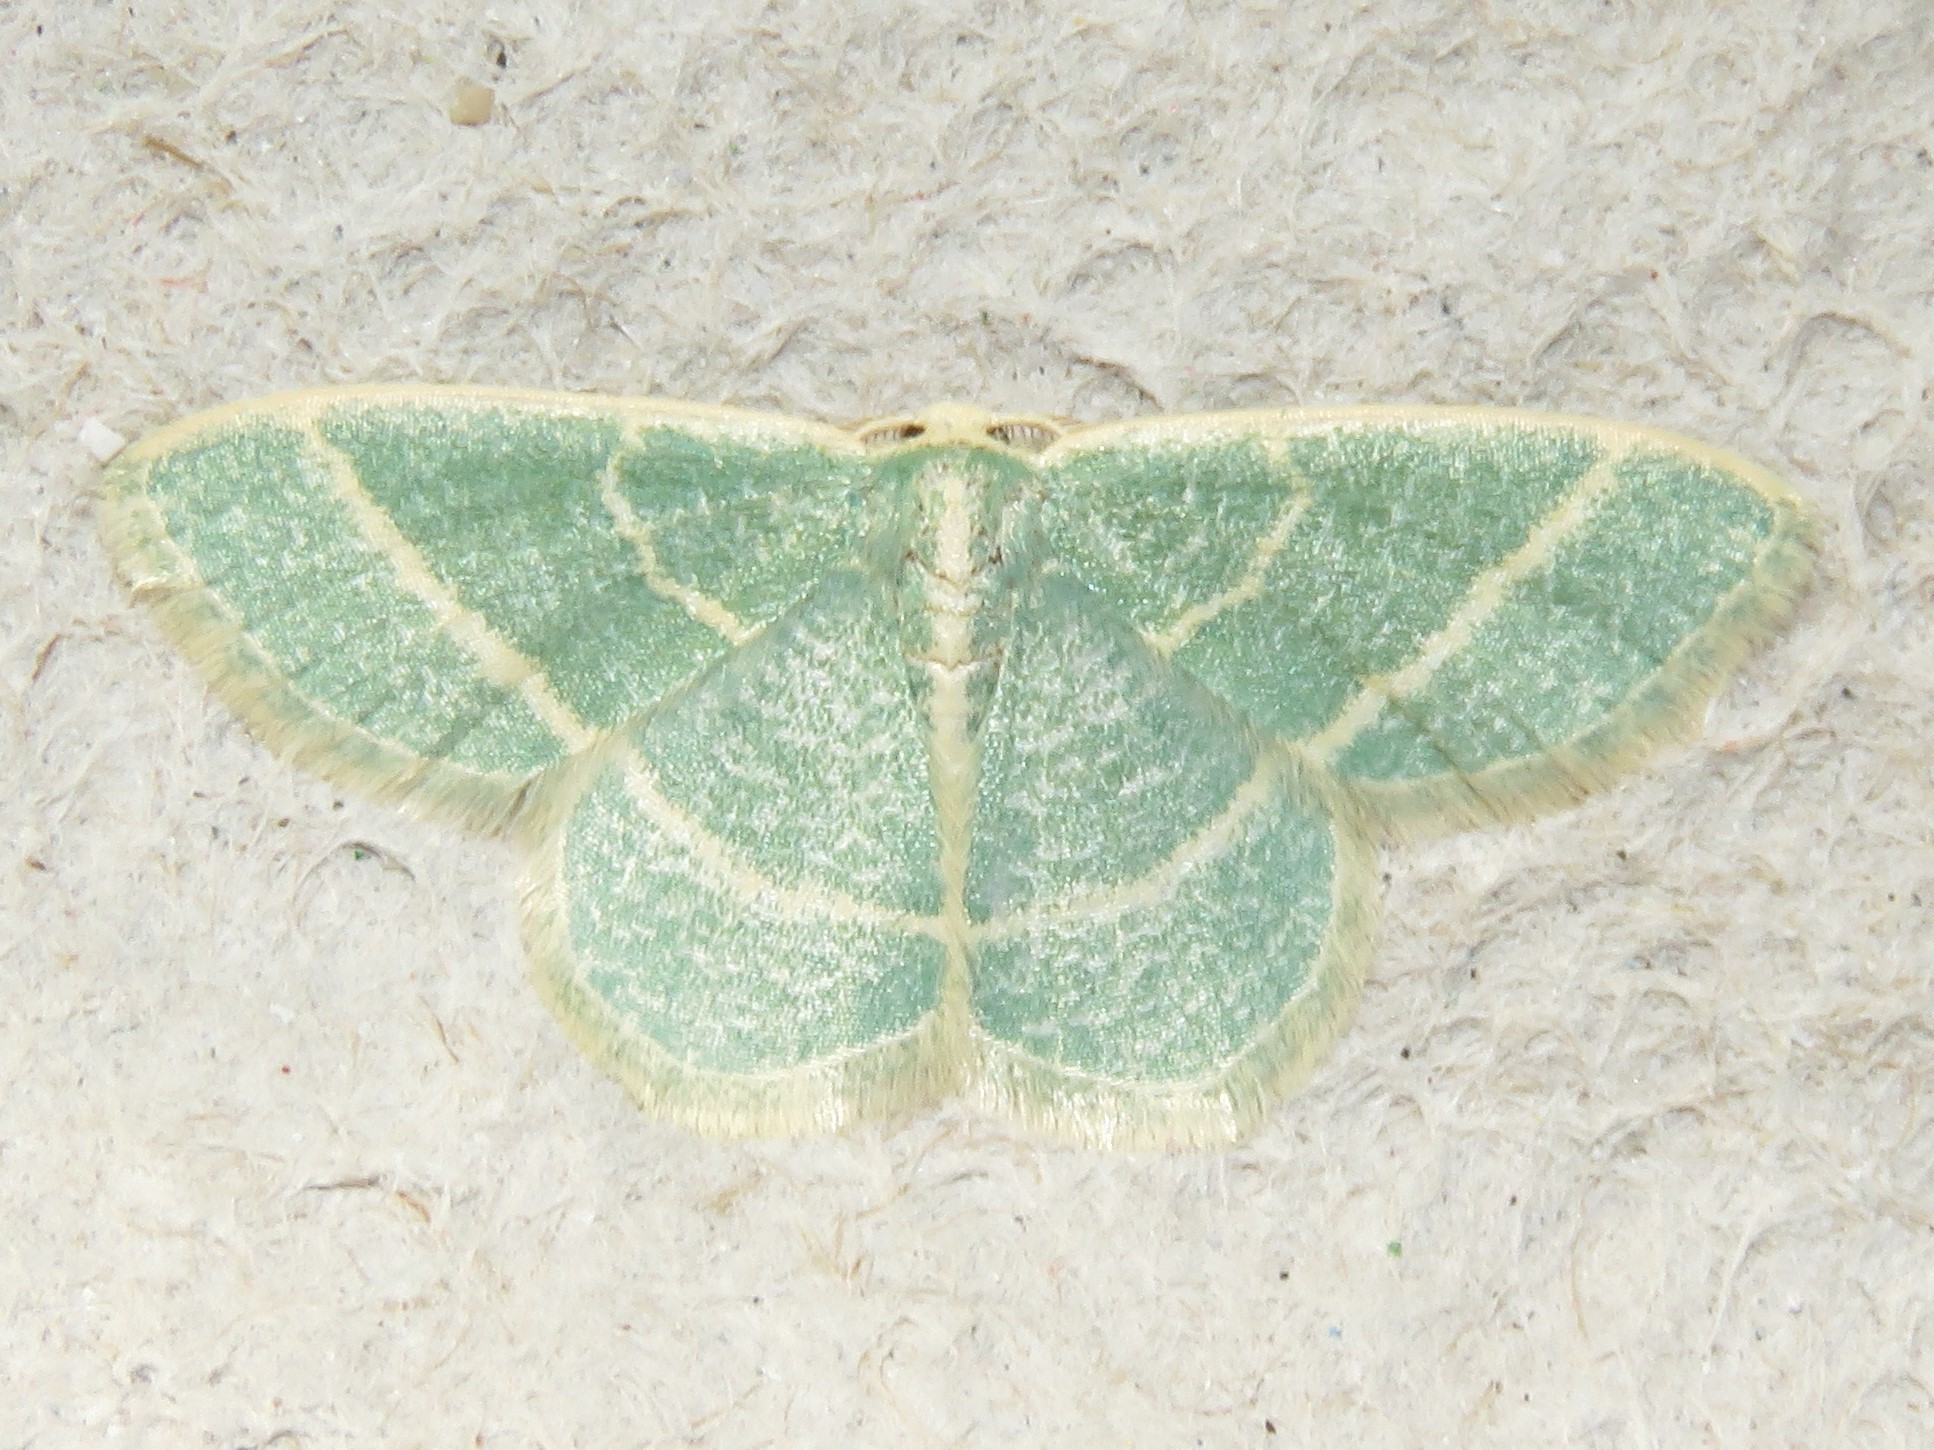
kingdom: Animalia
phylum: Arthropoda
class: Insecta
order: Lepidoptera
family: Geometridae
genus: Chlorochlamys
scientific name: Chlorochlamys chloroleucaria
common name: Blackberry looper
